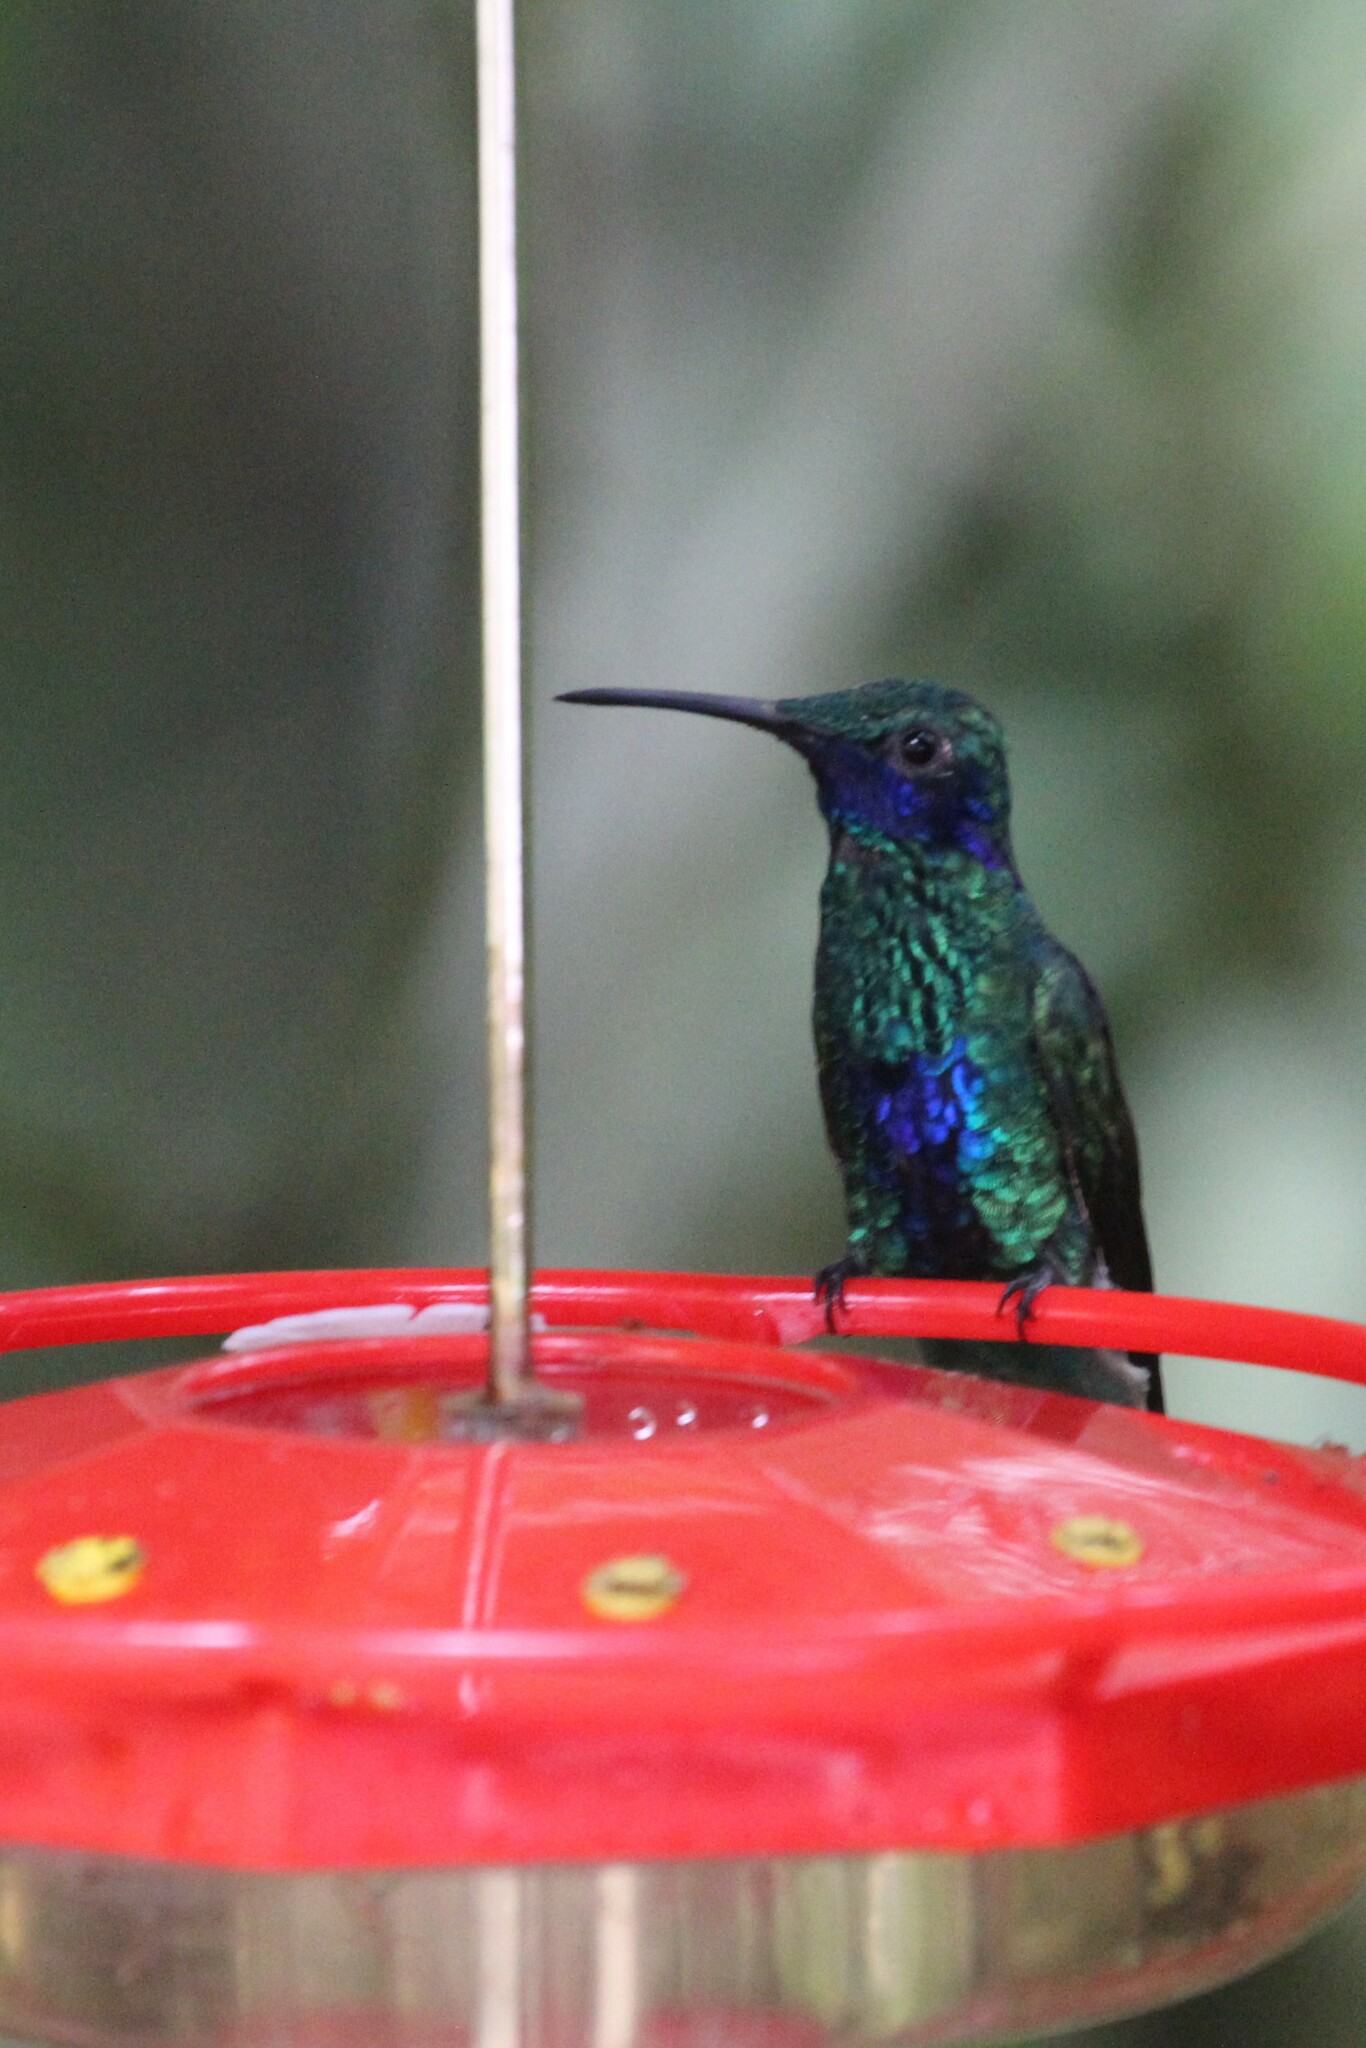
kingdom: Animalia
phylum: Chordata
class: Aves
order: Apodiformes
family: Trochilidae
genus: Colibri
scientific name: Colibri coruscans
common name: Sparkling violetear
